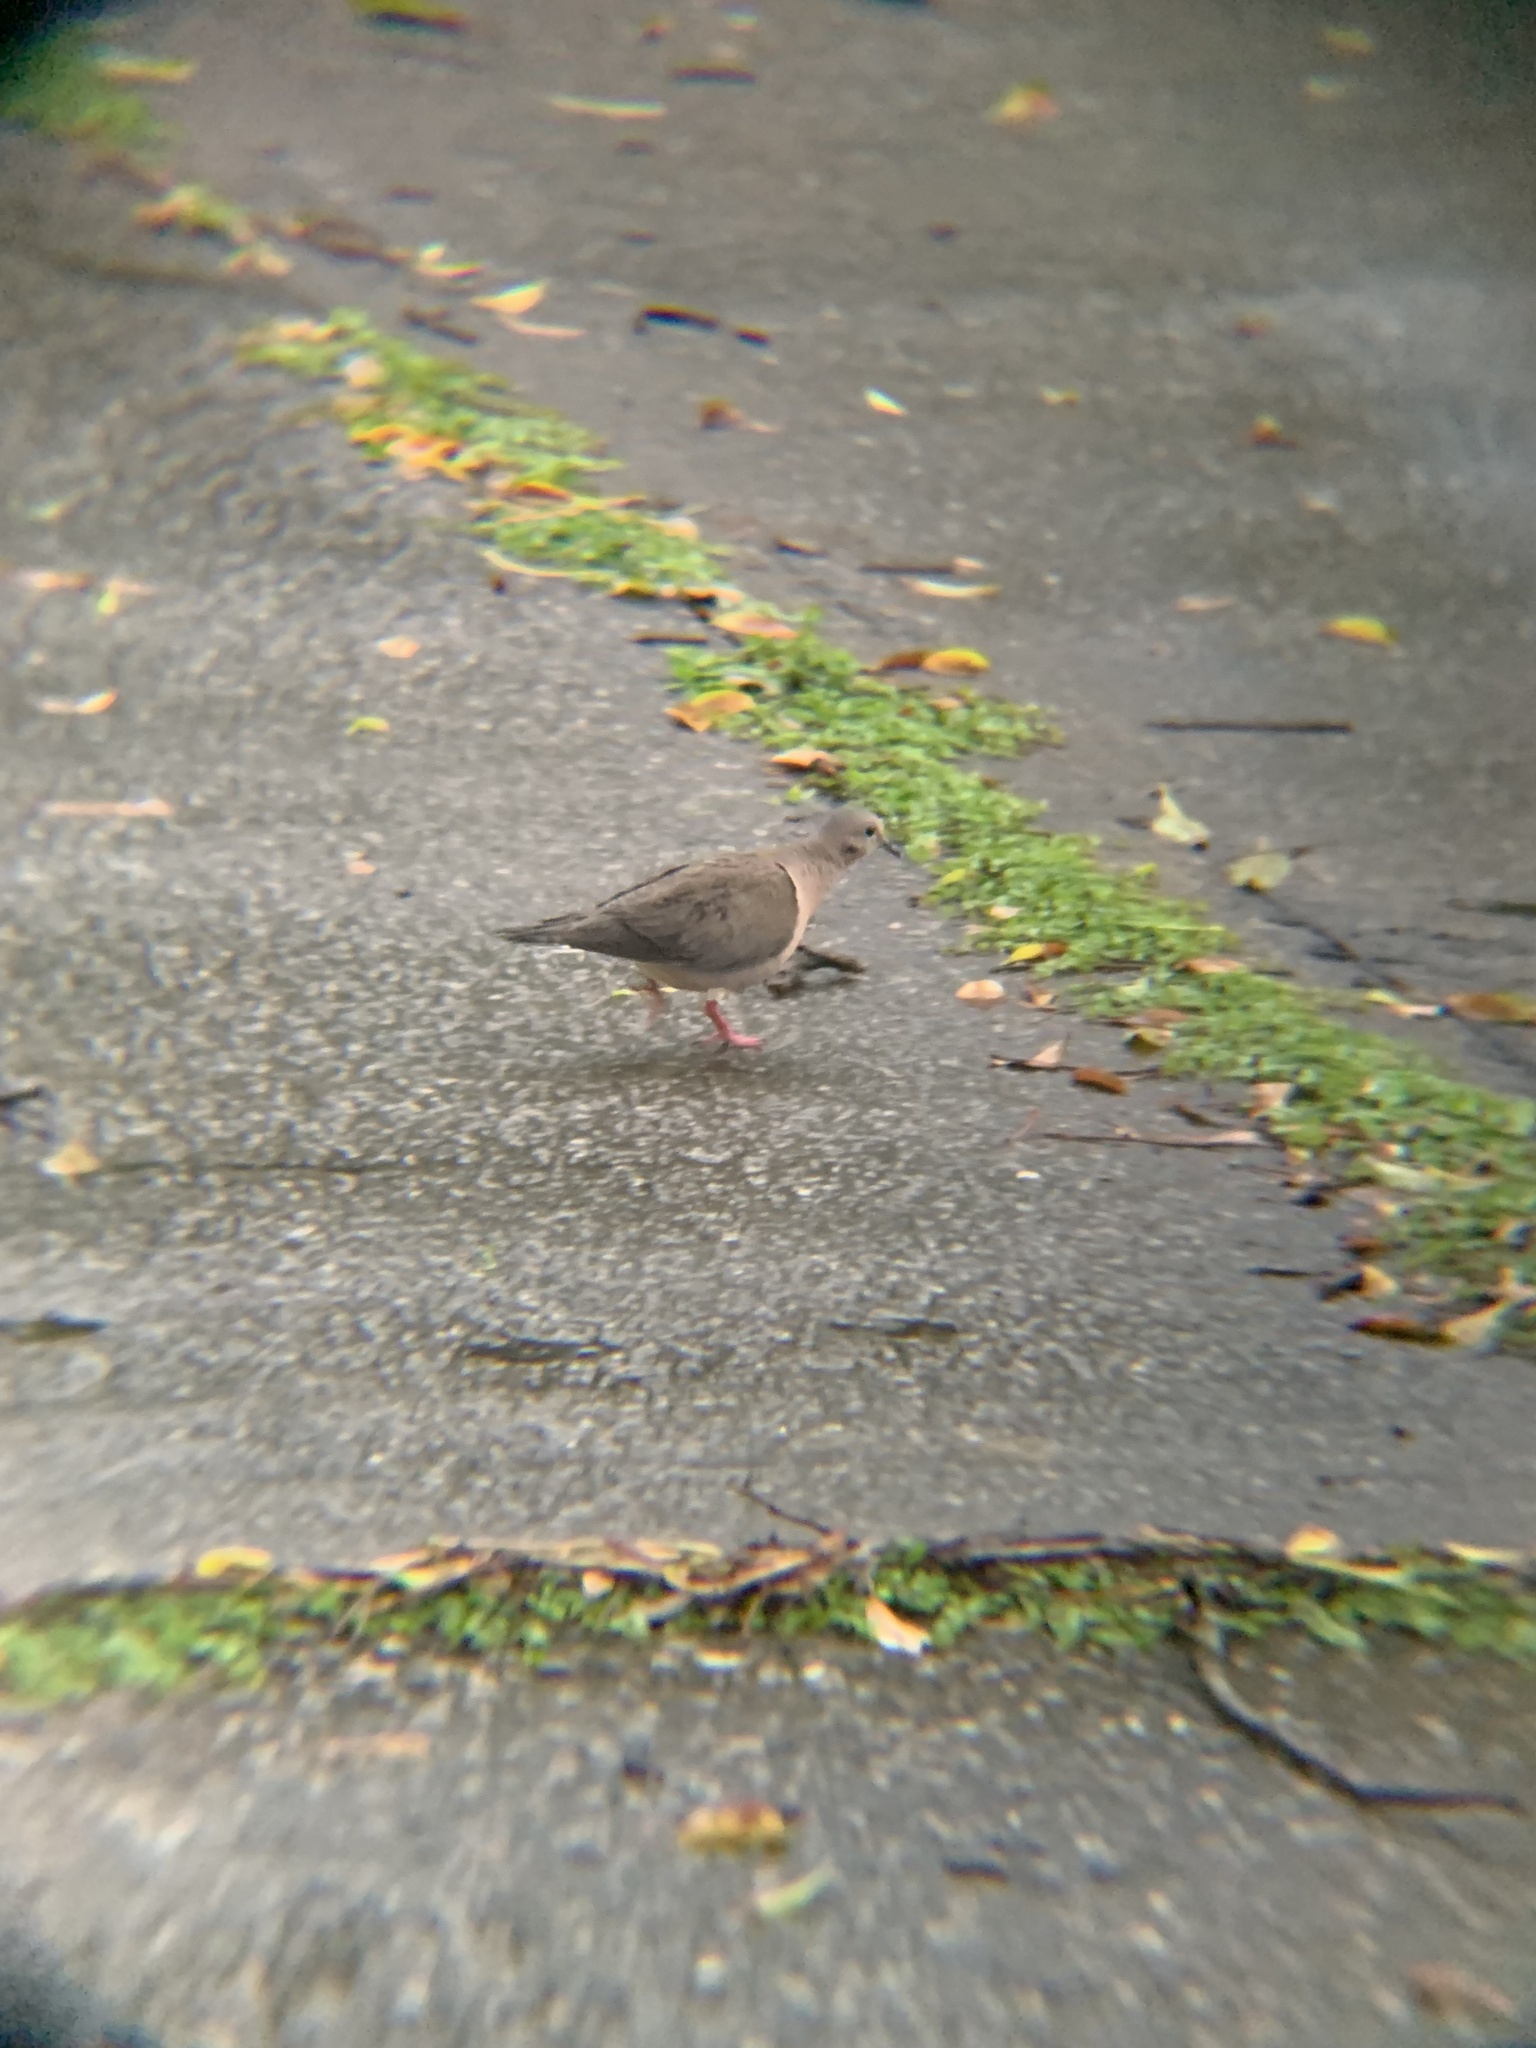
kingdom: Animalia
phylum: Chordata
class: Aves
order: Columbiformes
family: Columbidae
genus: Zenaida
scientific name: Zenaida auriculata
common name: Eared dove
